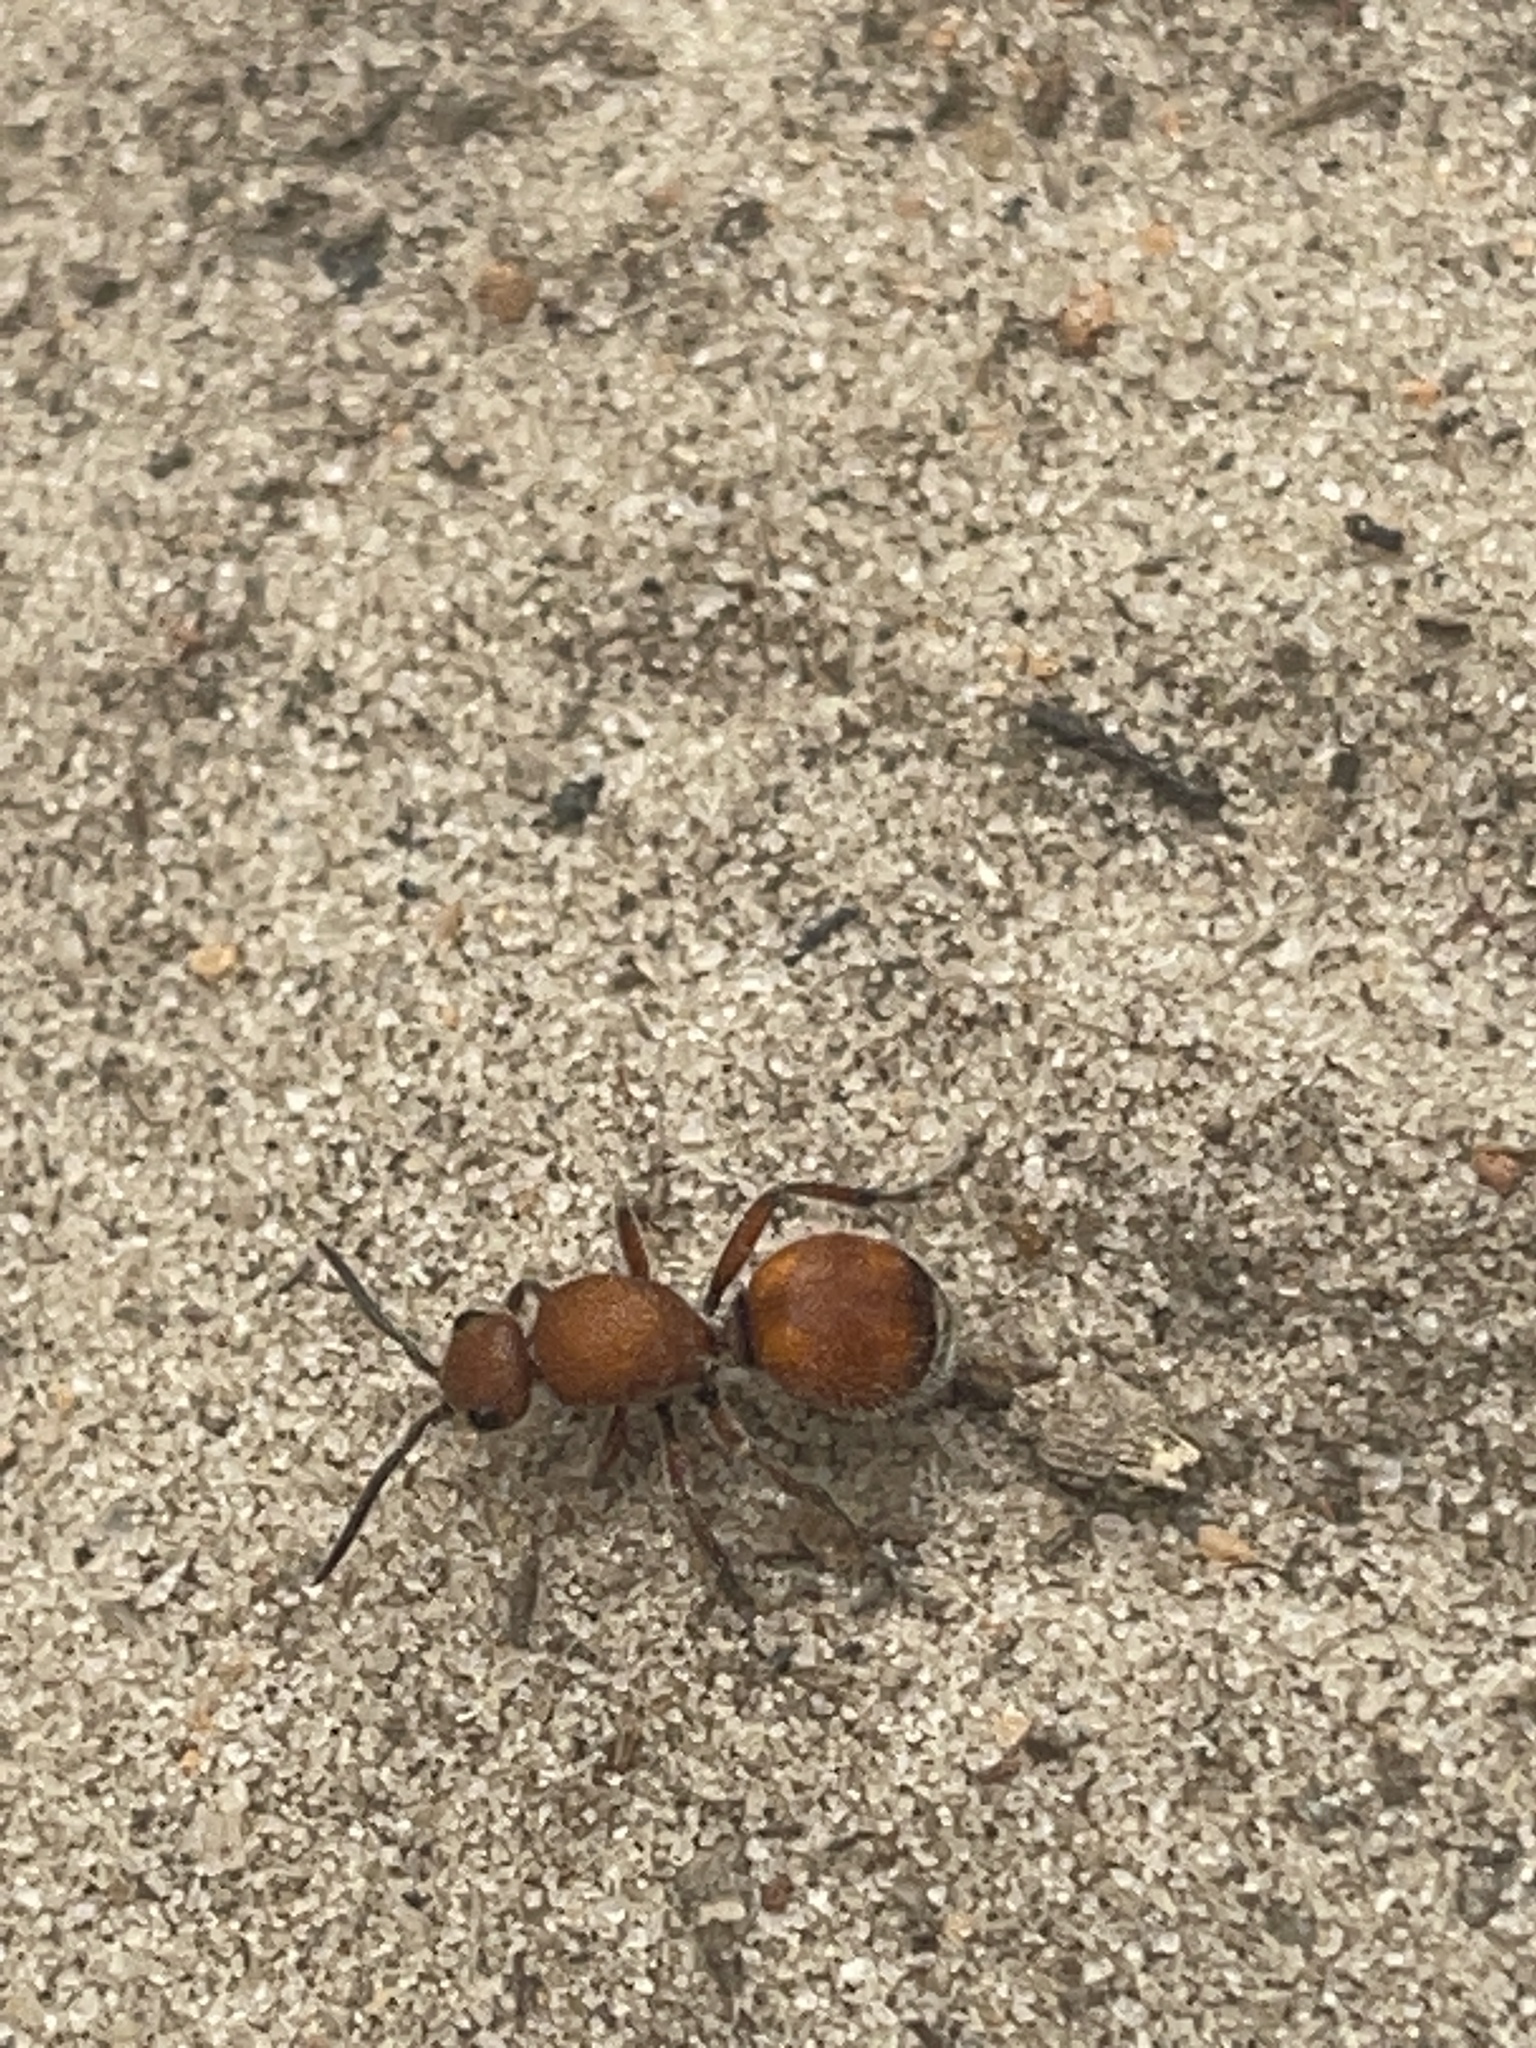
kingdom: Animalia
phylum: Arthropoda
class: Insecta
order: Hymenoptera
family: Mutillidae
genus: Dasymutilla
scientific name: Dasymutilla
